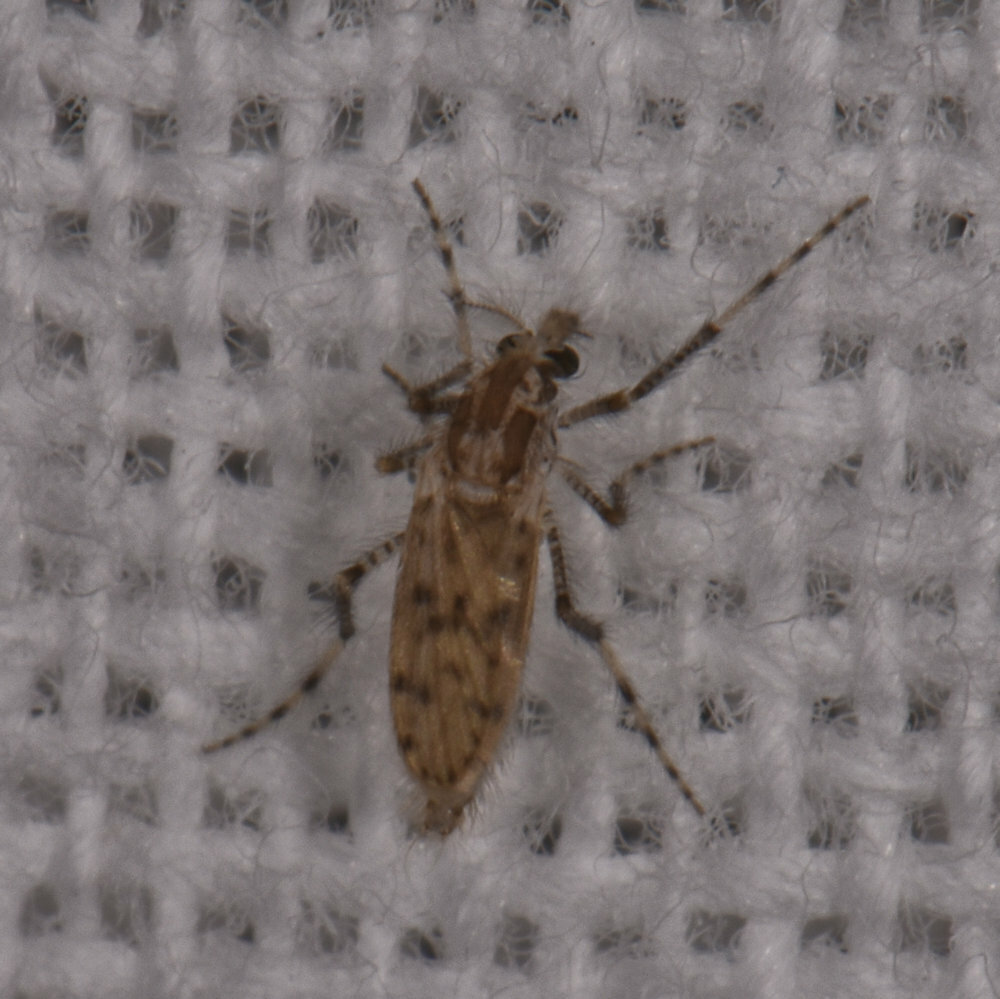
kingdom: Animalia
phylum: Arthropoda
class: Insecta
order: Diptera
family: Chaoboridae
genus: Chaoborus
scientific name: Chaoborus punctipennis
